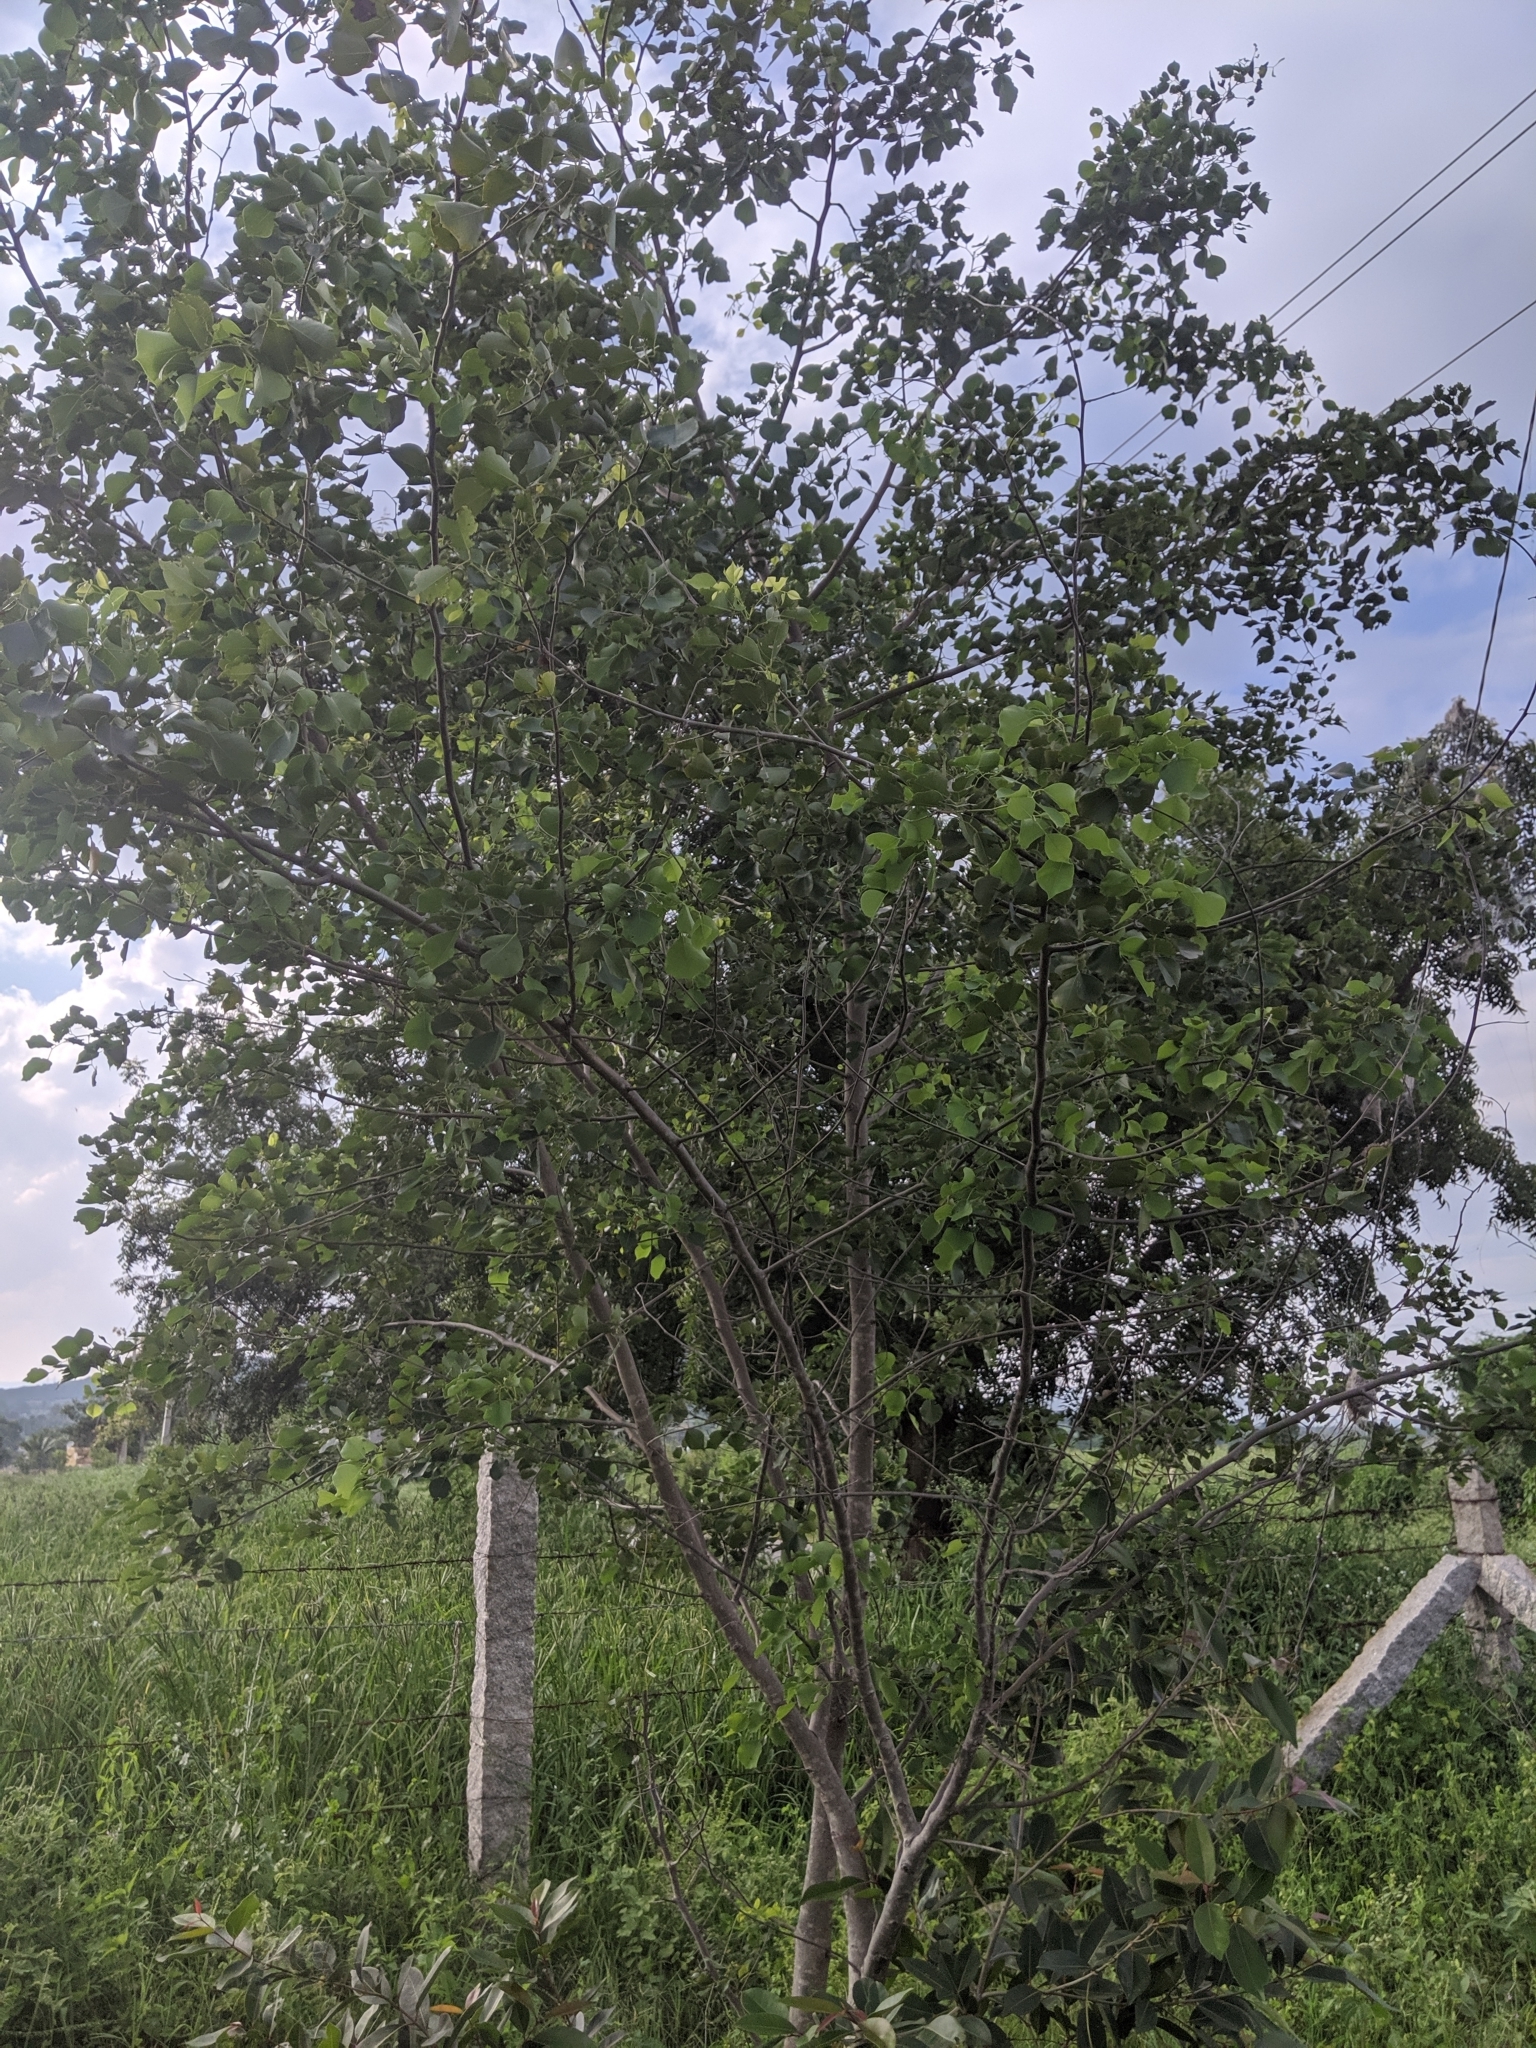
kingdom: Plantae
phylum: Tracheophyta
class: Magnoliopsida
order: Fabales
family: Fabaceae
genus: Dalbergia
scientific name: Dalbergia sissoo
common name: Indian rosewood
